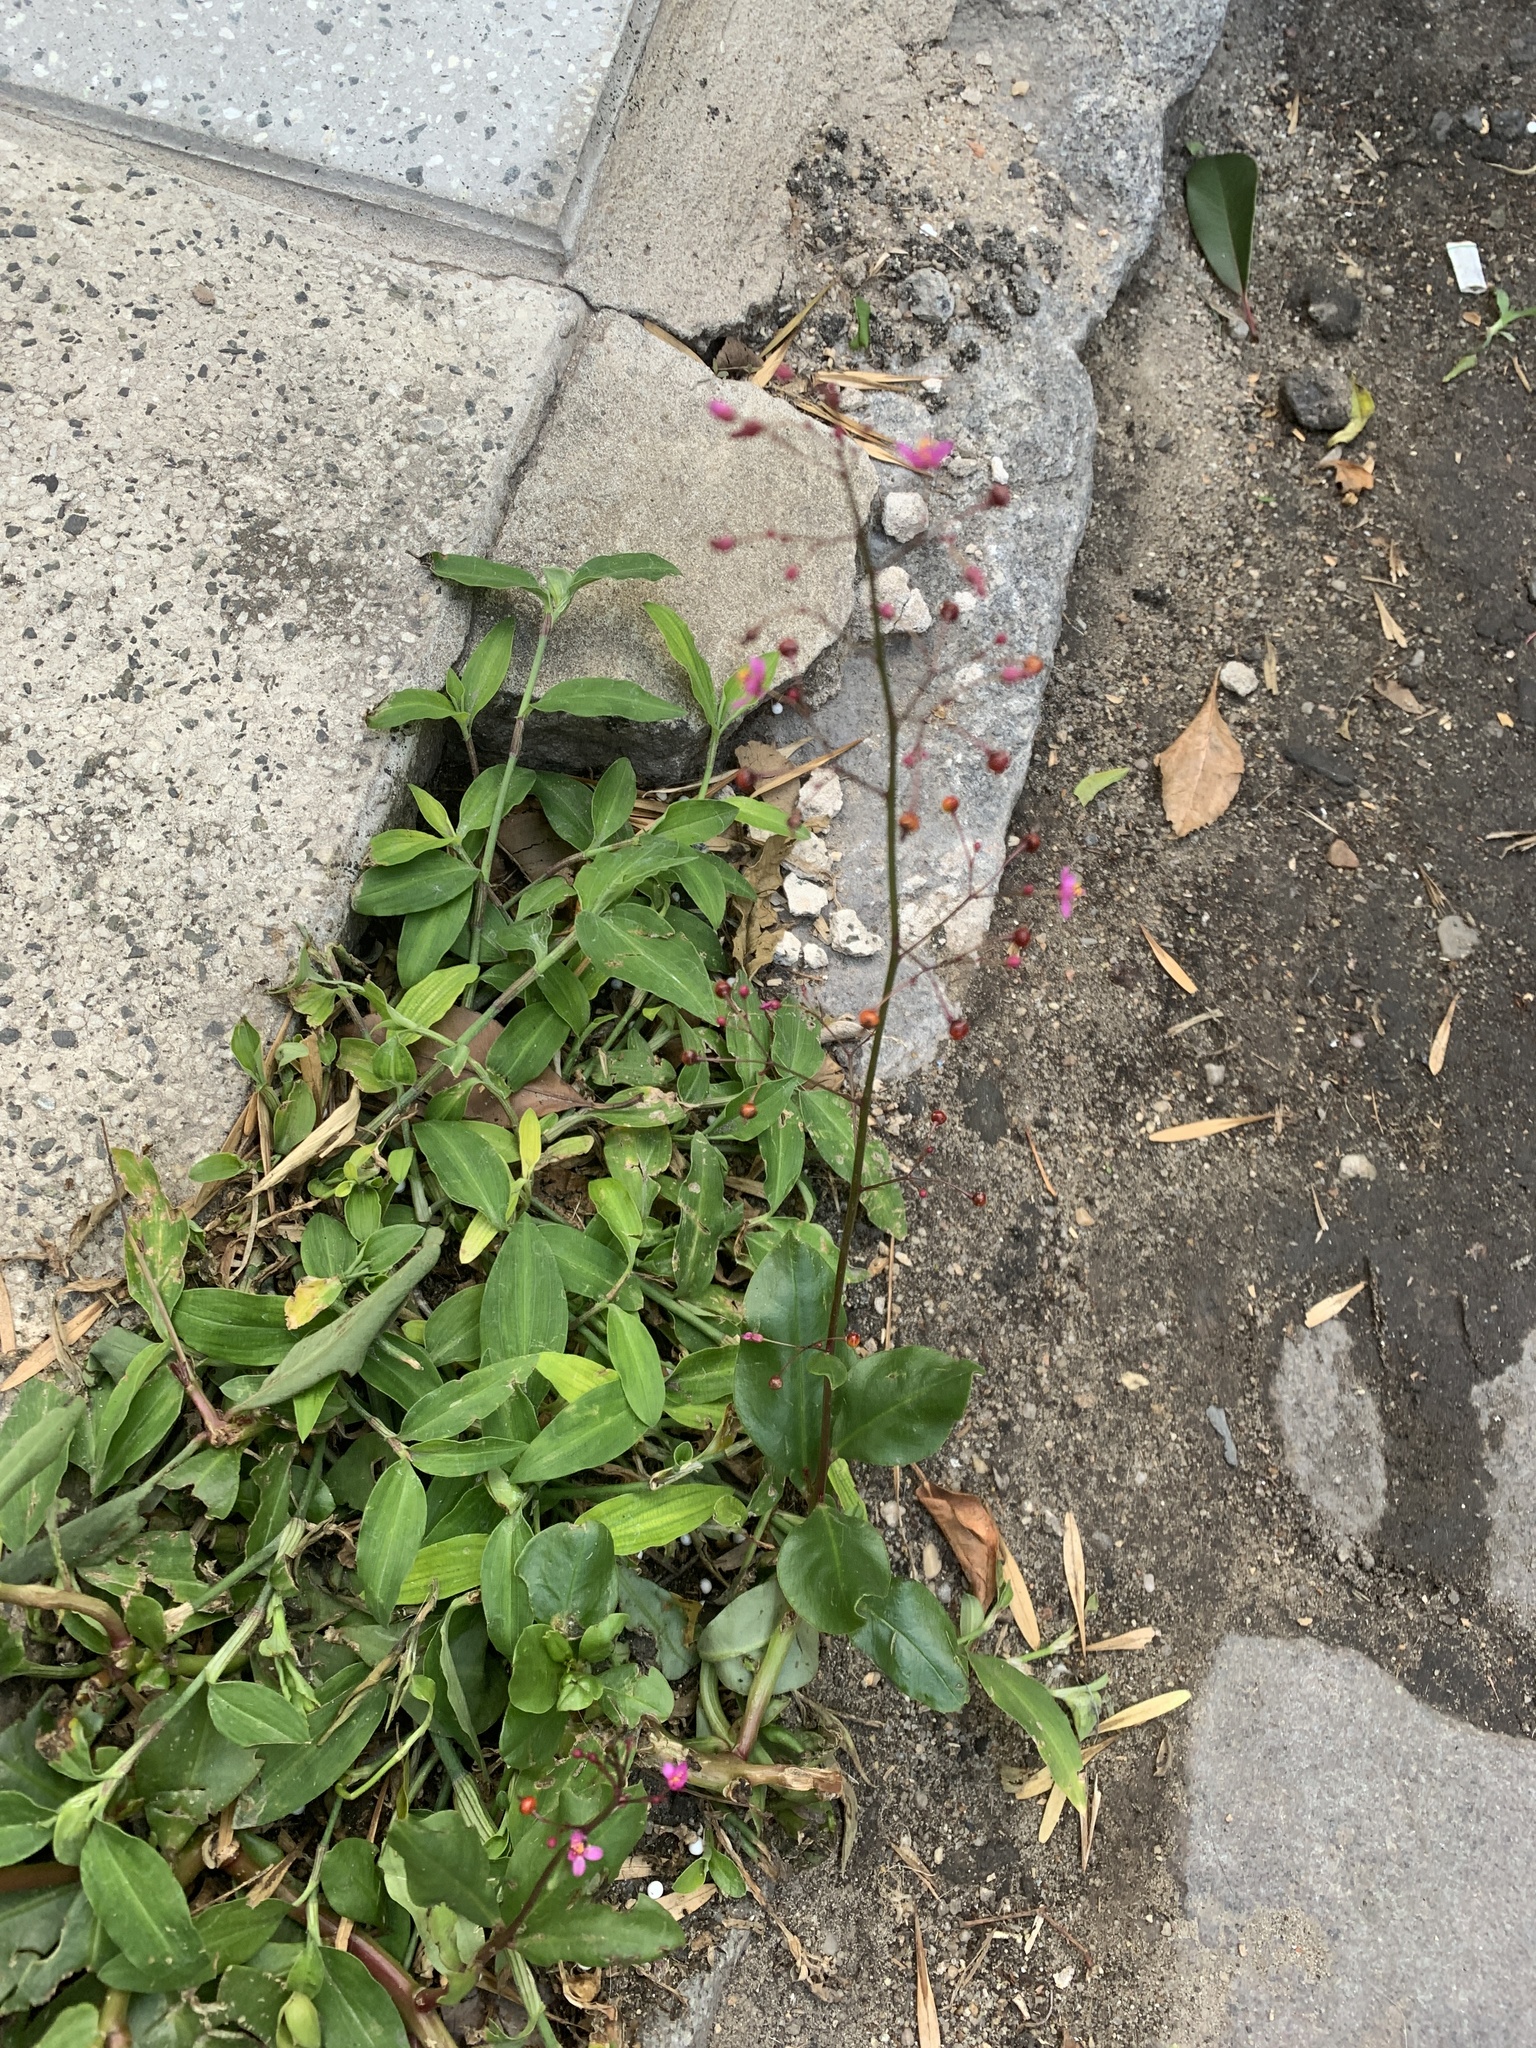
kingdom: Plantae
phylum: Tracheophyta
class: Magnoliopsida
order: Caryophyllales
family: Talinaceae
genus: Talinum
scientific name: Talinum paniculatum
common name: Jewels of opar
